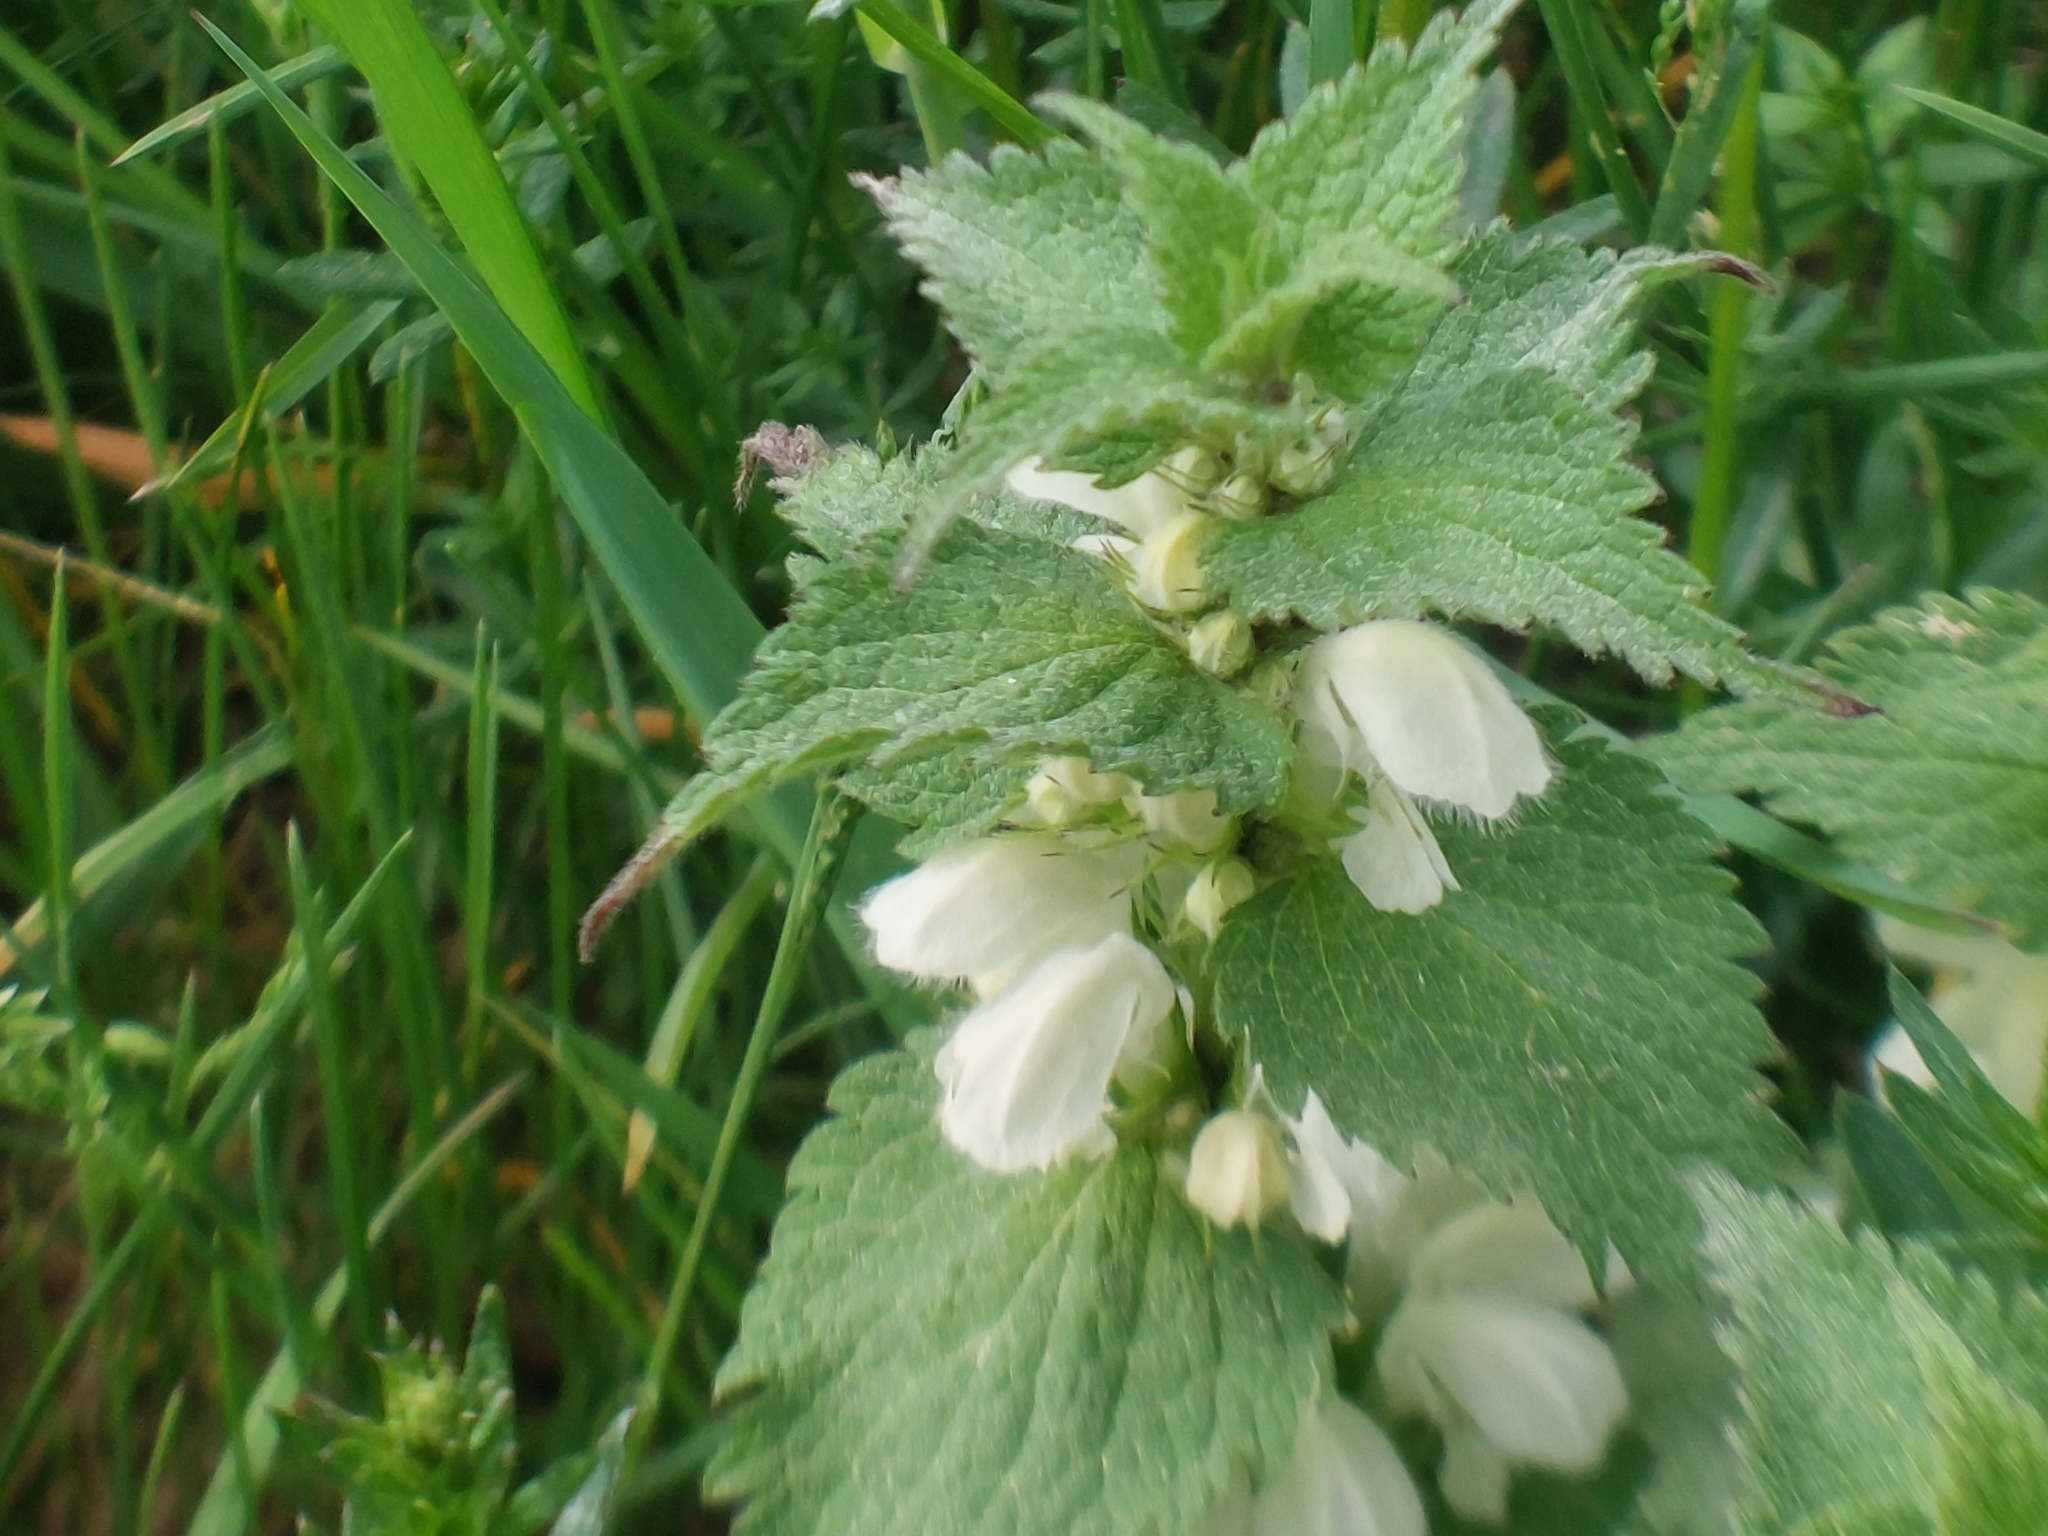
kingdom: Plantae
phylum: Tracheophyta
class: Magnoliopsida
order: Lamiales
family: Lamiaceae
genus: Lamium
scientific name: Lamium album
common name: White dead-nettle
